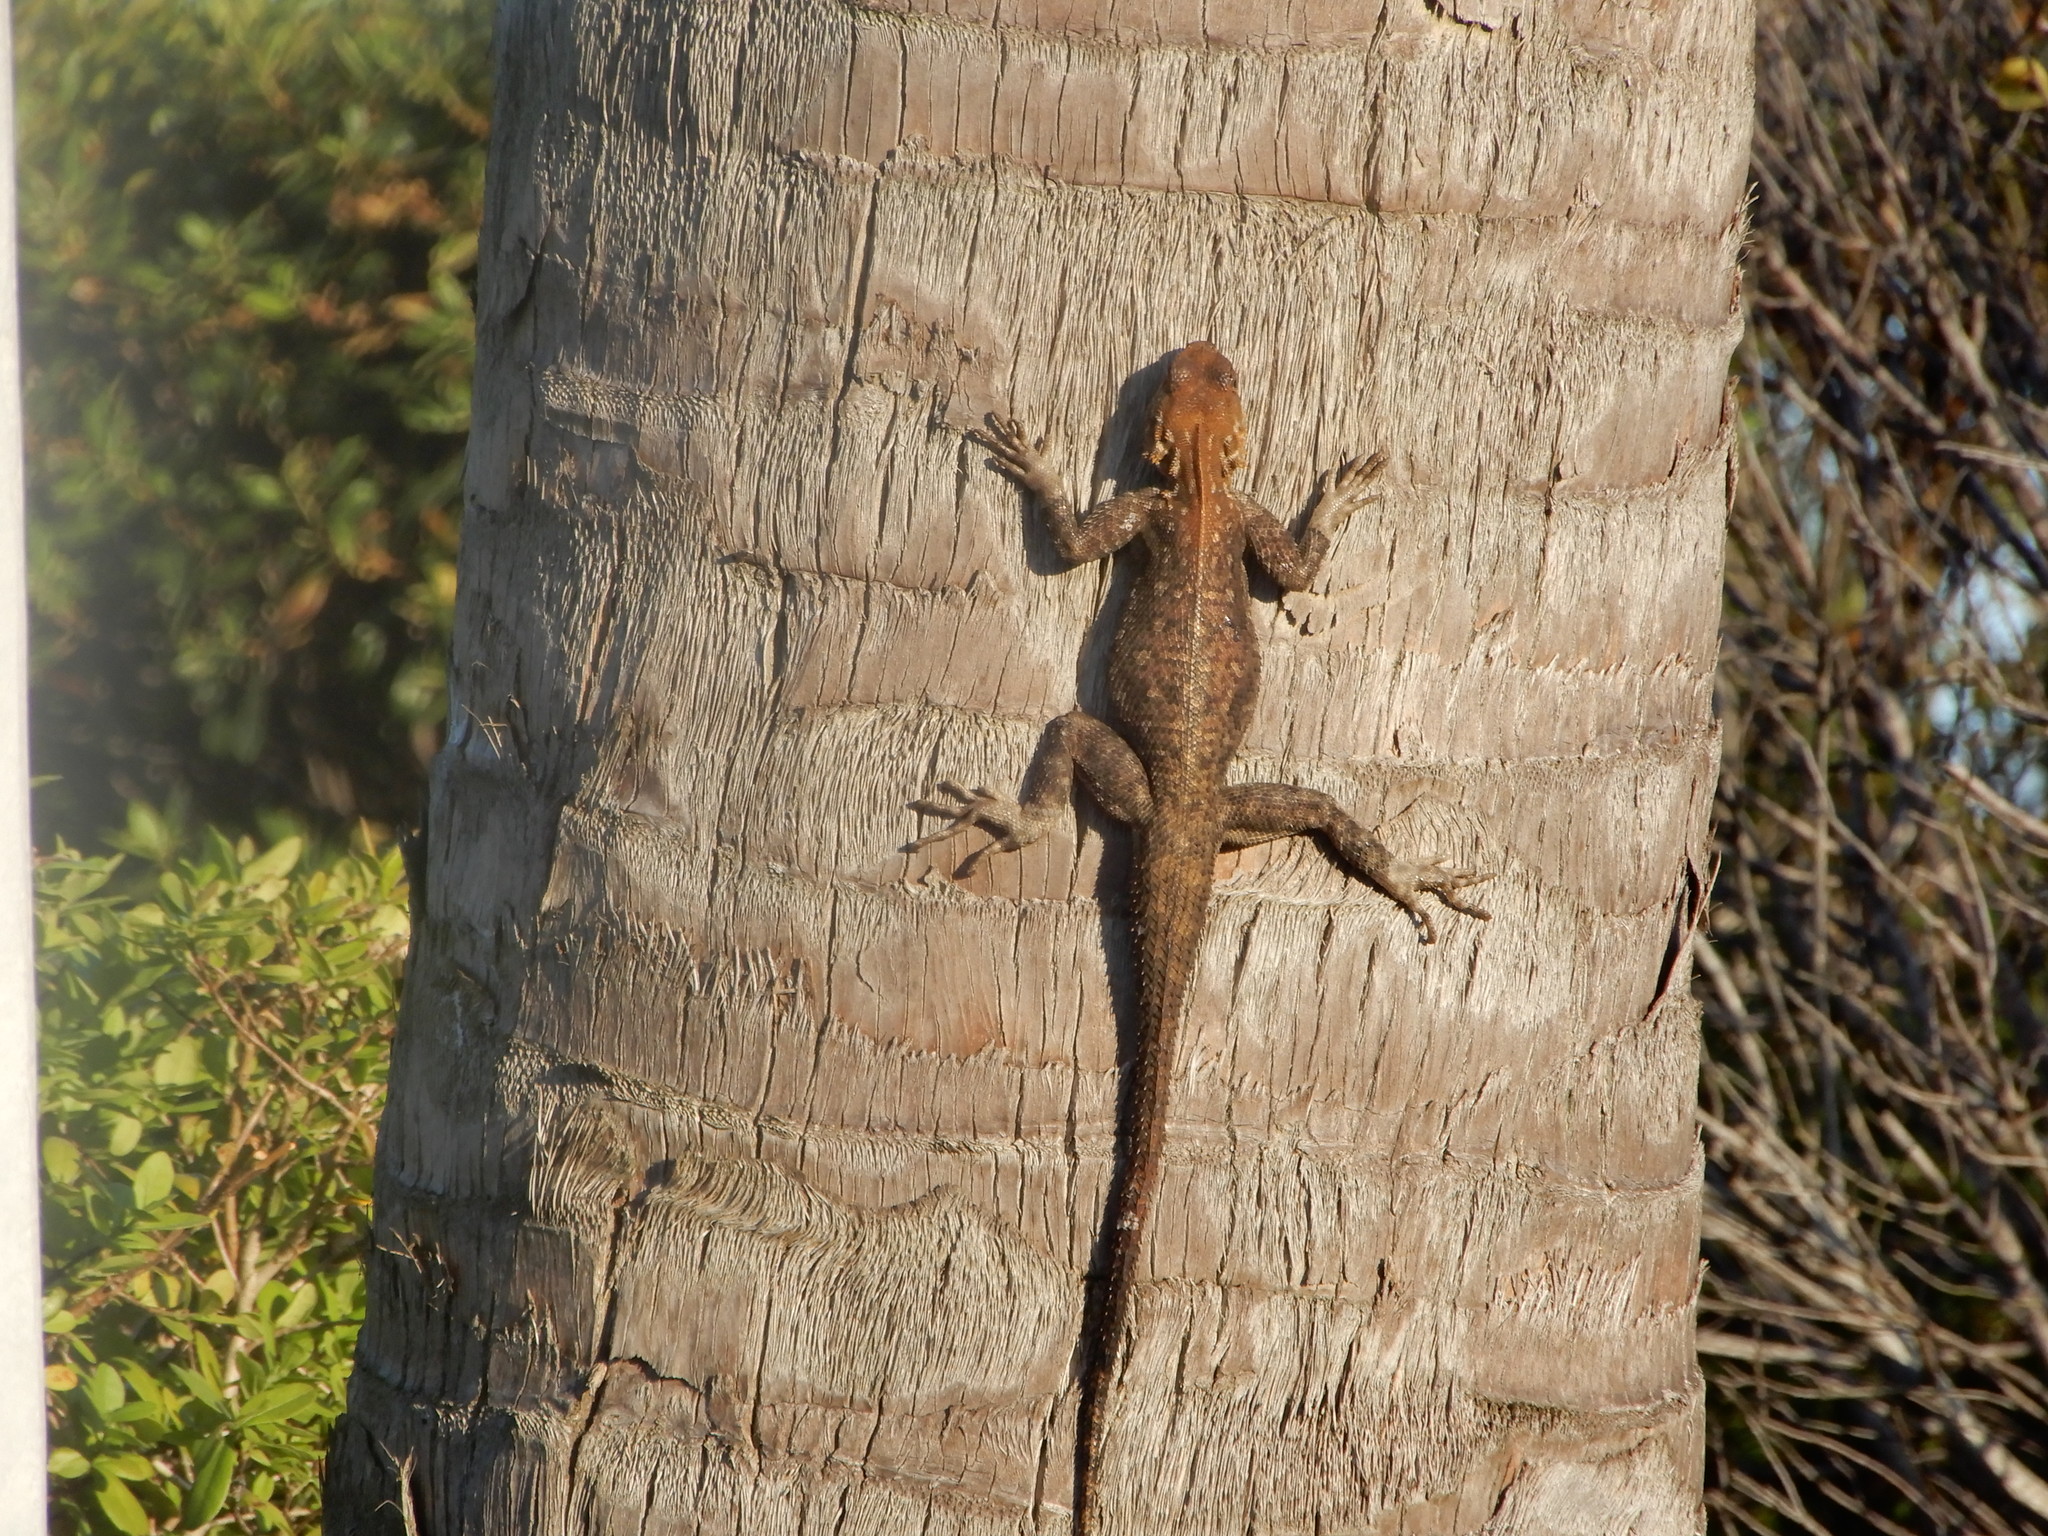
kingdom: Animalia
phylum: Chordata
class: Squamata
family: Agamidae
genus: Agama
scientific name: Agama picticauda
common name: Red-headed agama
